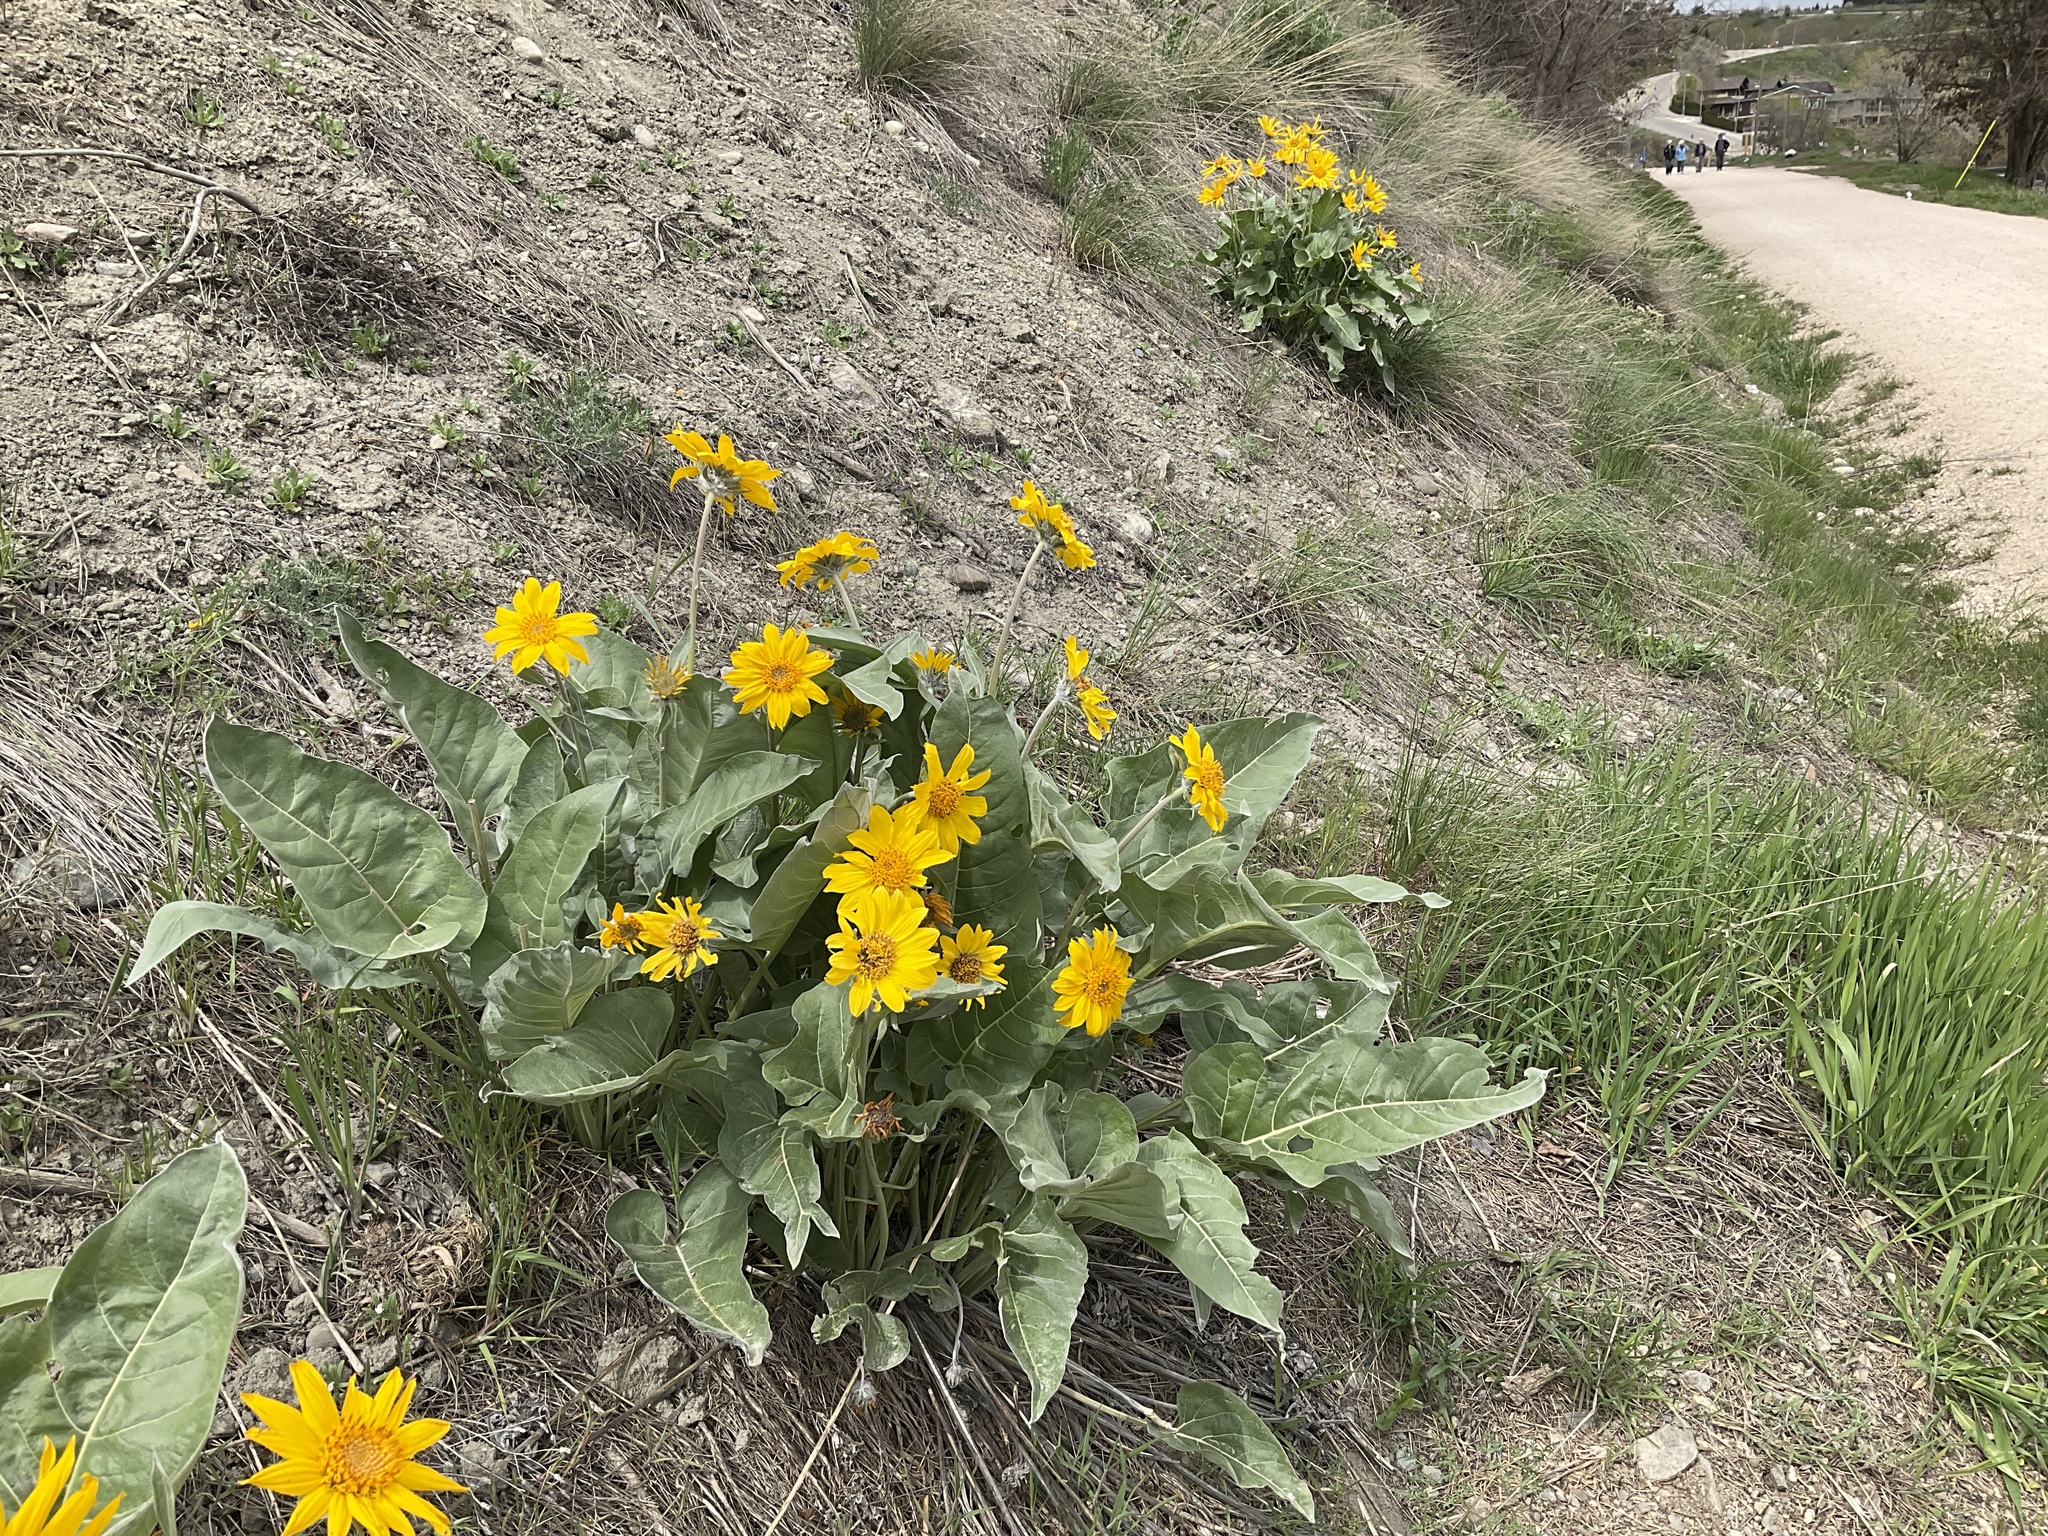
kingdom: Plantae
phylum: Tracheophyta
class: Magnoliopsida
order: Asterales
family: Asteraceae
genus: Wyethia
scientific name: Wyethia sagittata
